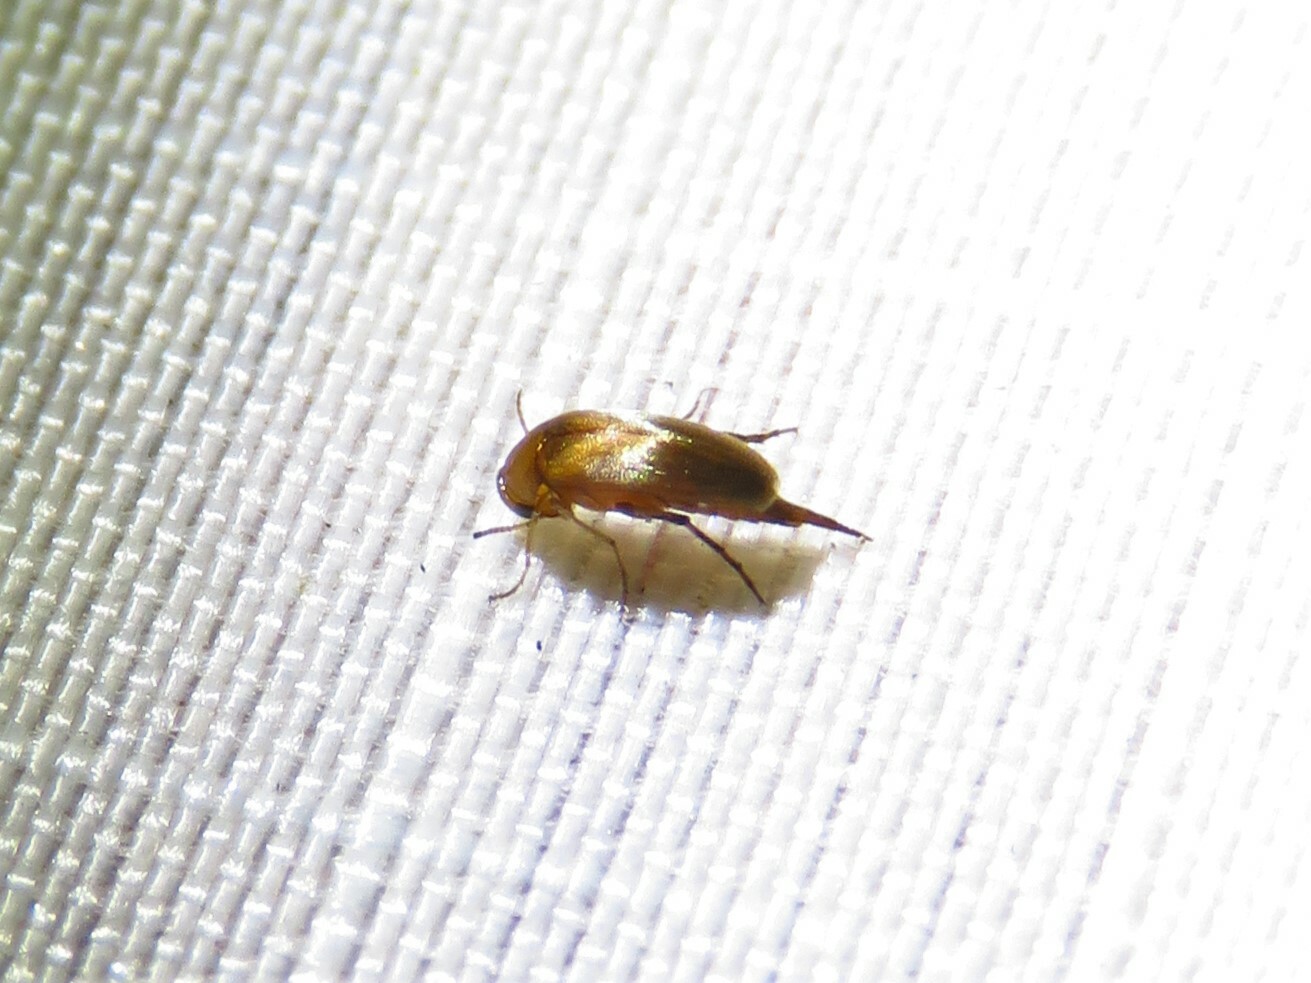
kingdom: Animalia
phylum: Arthropoda
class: Insecta
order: Coleoptera
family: Mordellidae
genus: Mordellina
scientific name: Mordellina testacea
